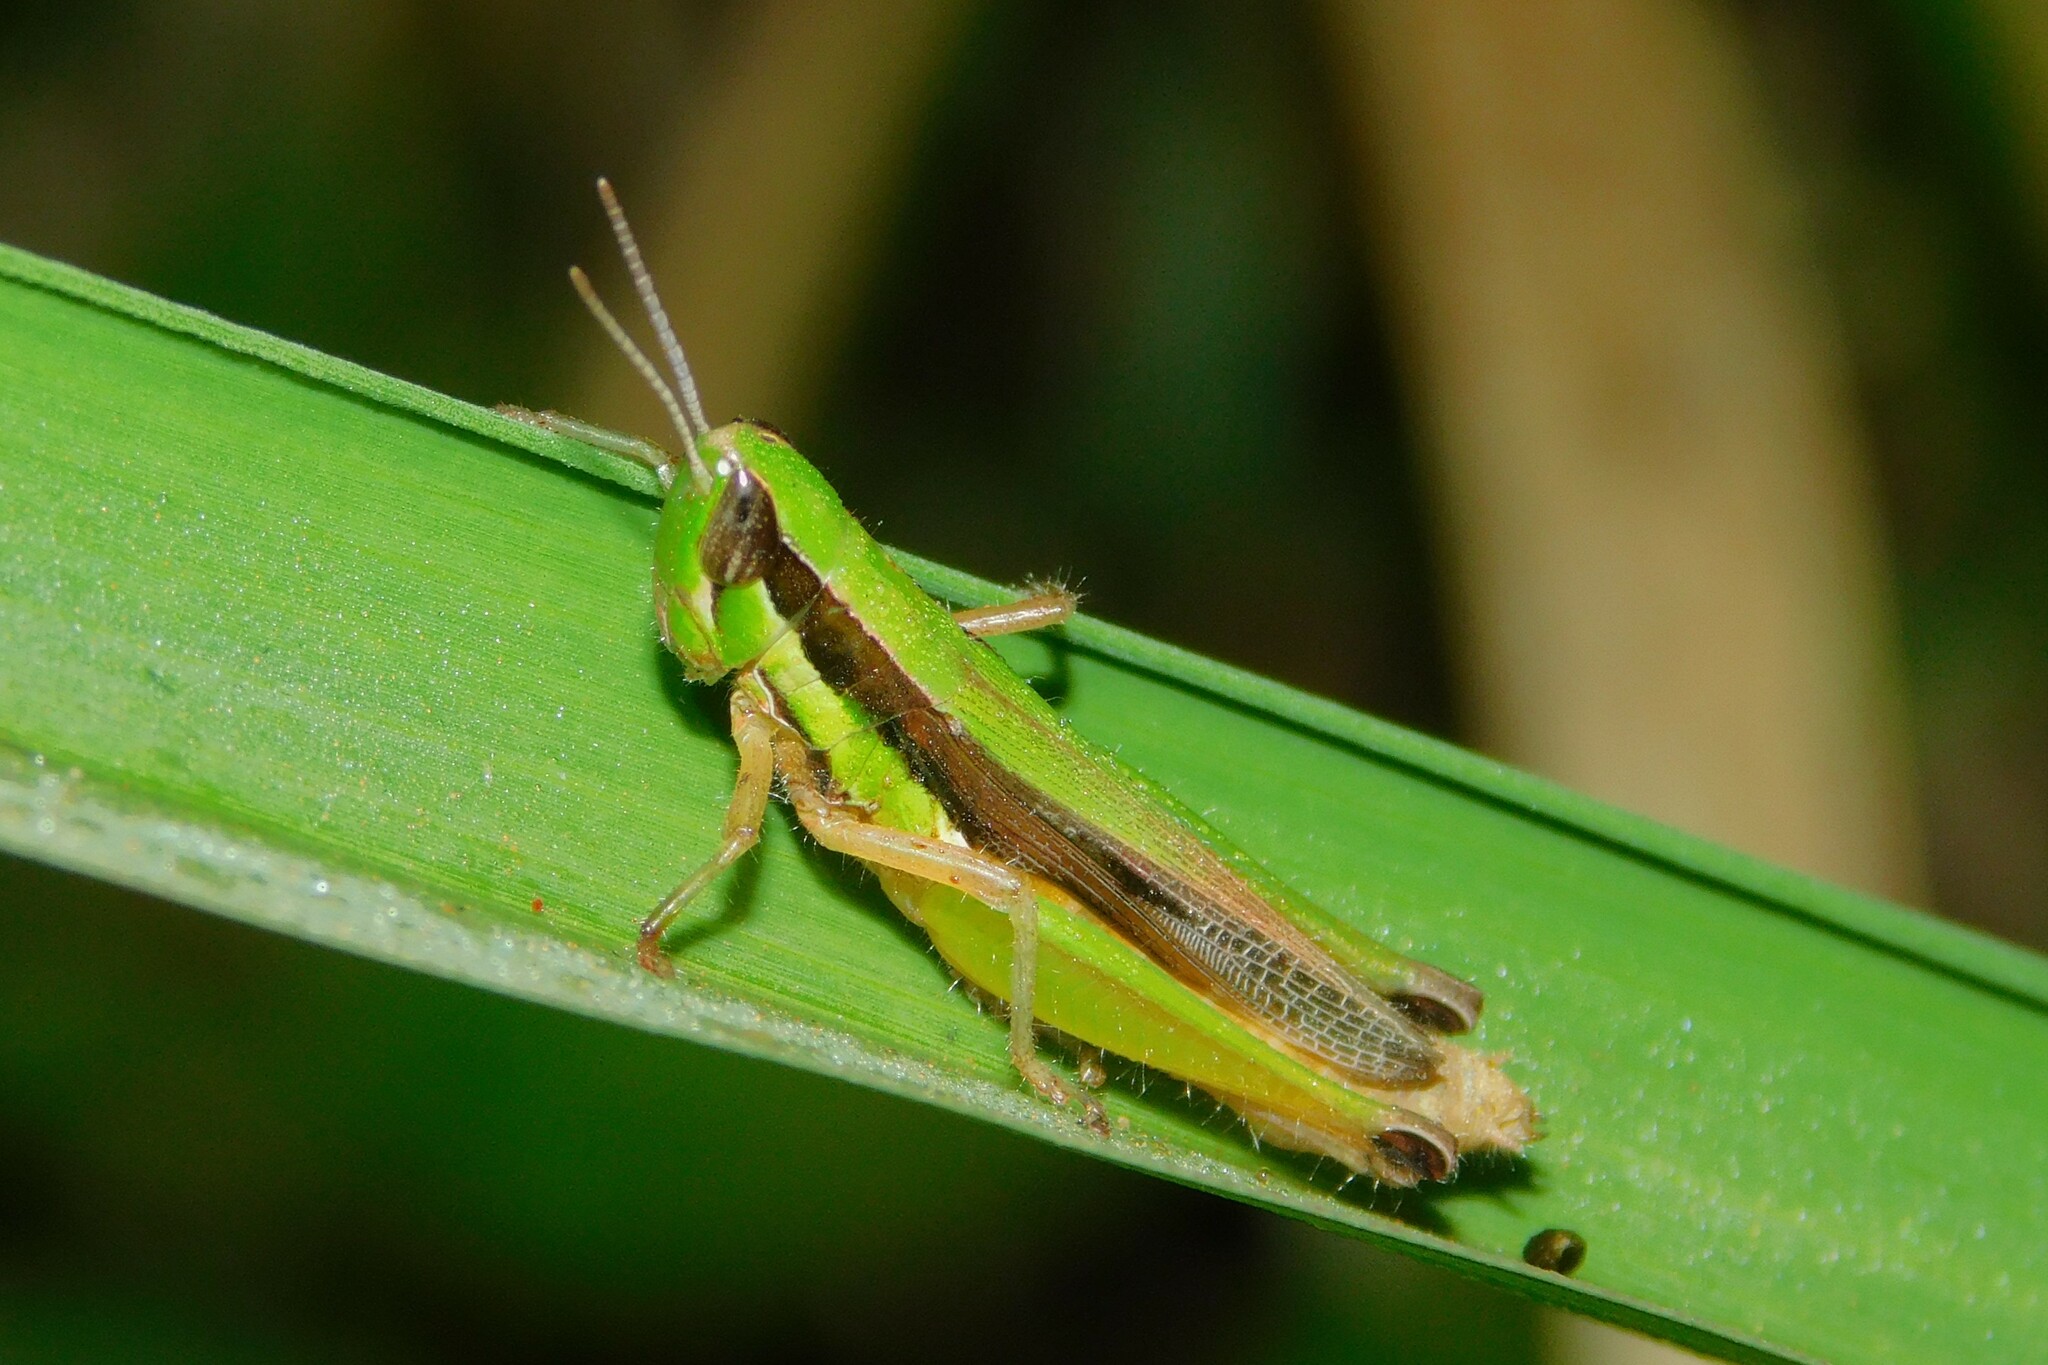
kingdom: Animalia
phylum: Arthropoda
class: Insecta
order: Orthoptera
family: Acrididae
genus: Spathosternum
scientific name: Spathosternum pygmaeum
